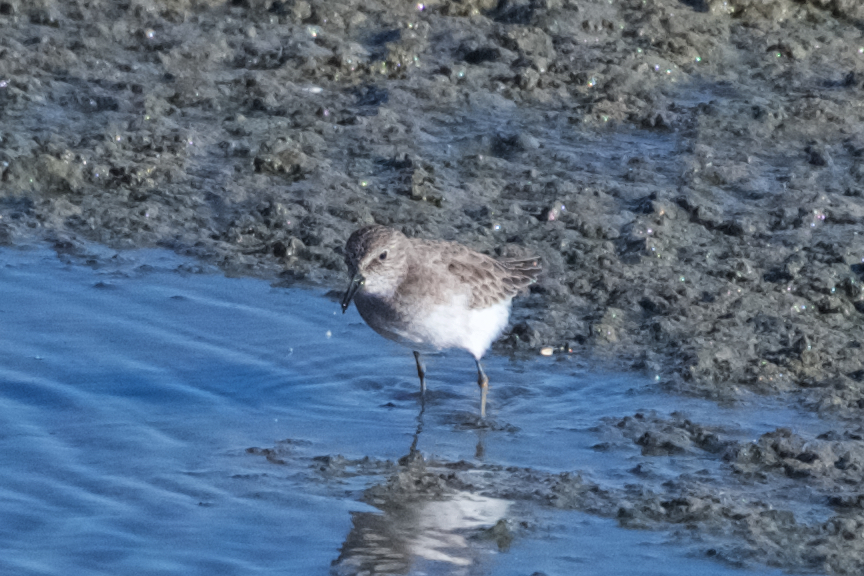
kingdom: Animalia
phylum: Chordata
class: Aves
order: Charadriiformes
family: Scolopacidae
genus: Calidris
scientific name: Calidris minutilla
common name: Least sandpiper
